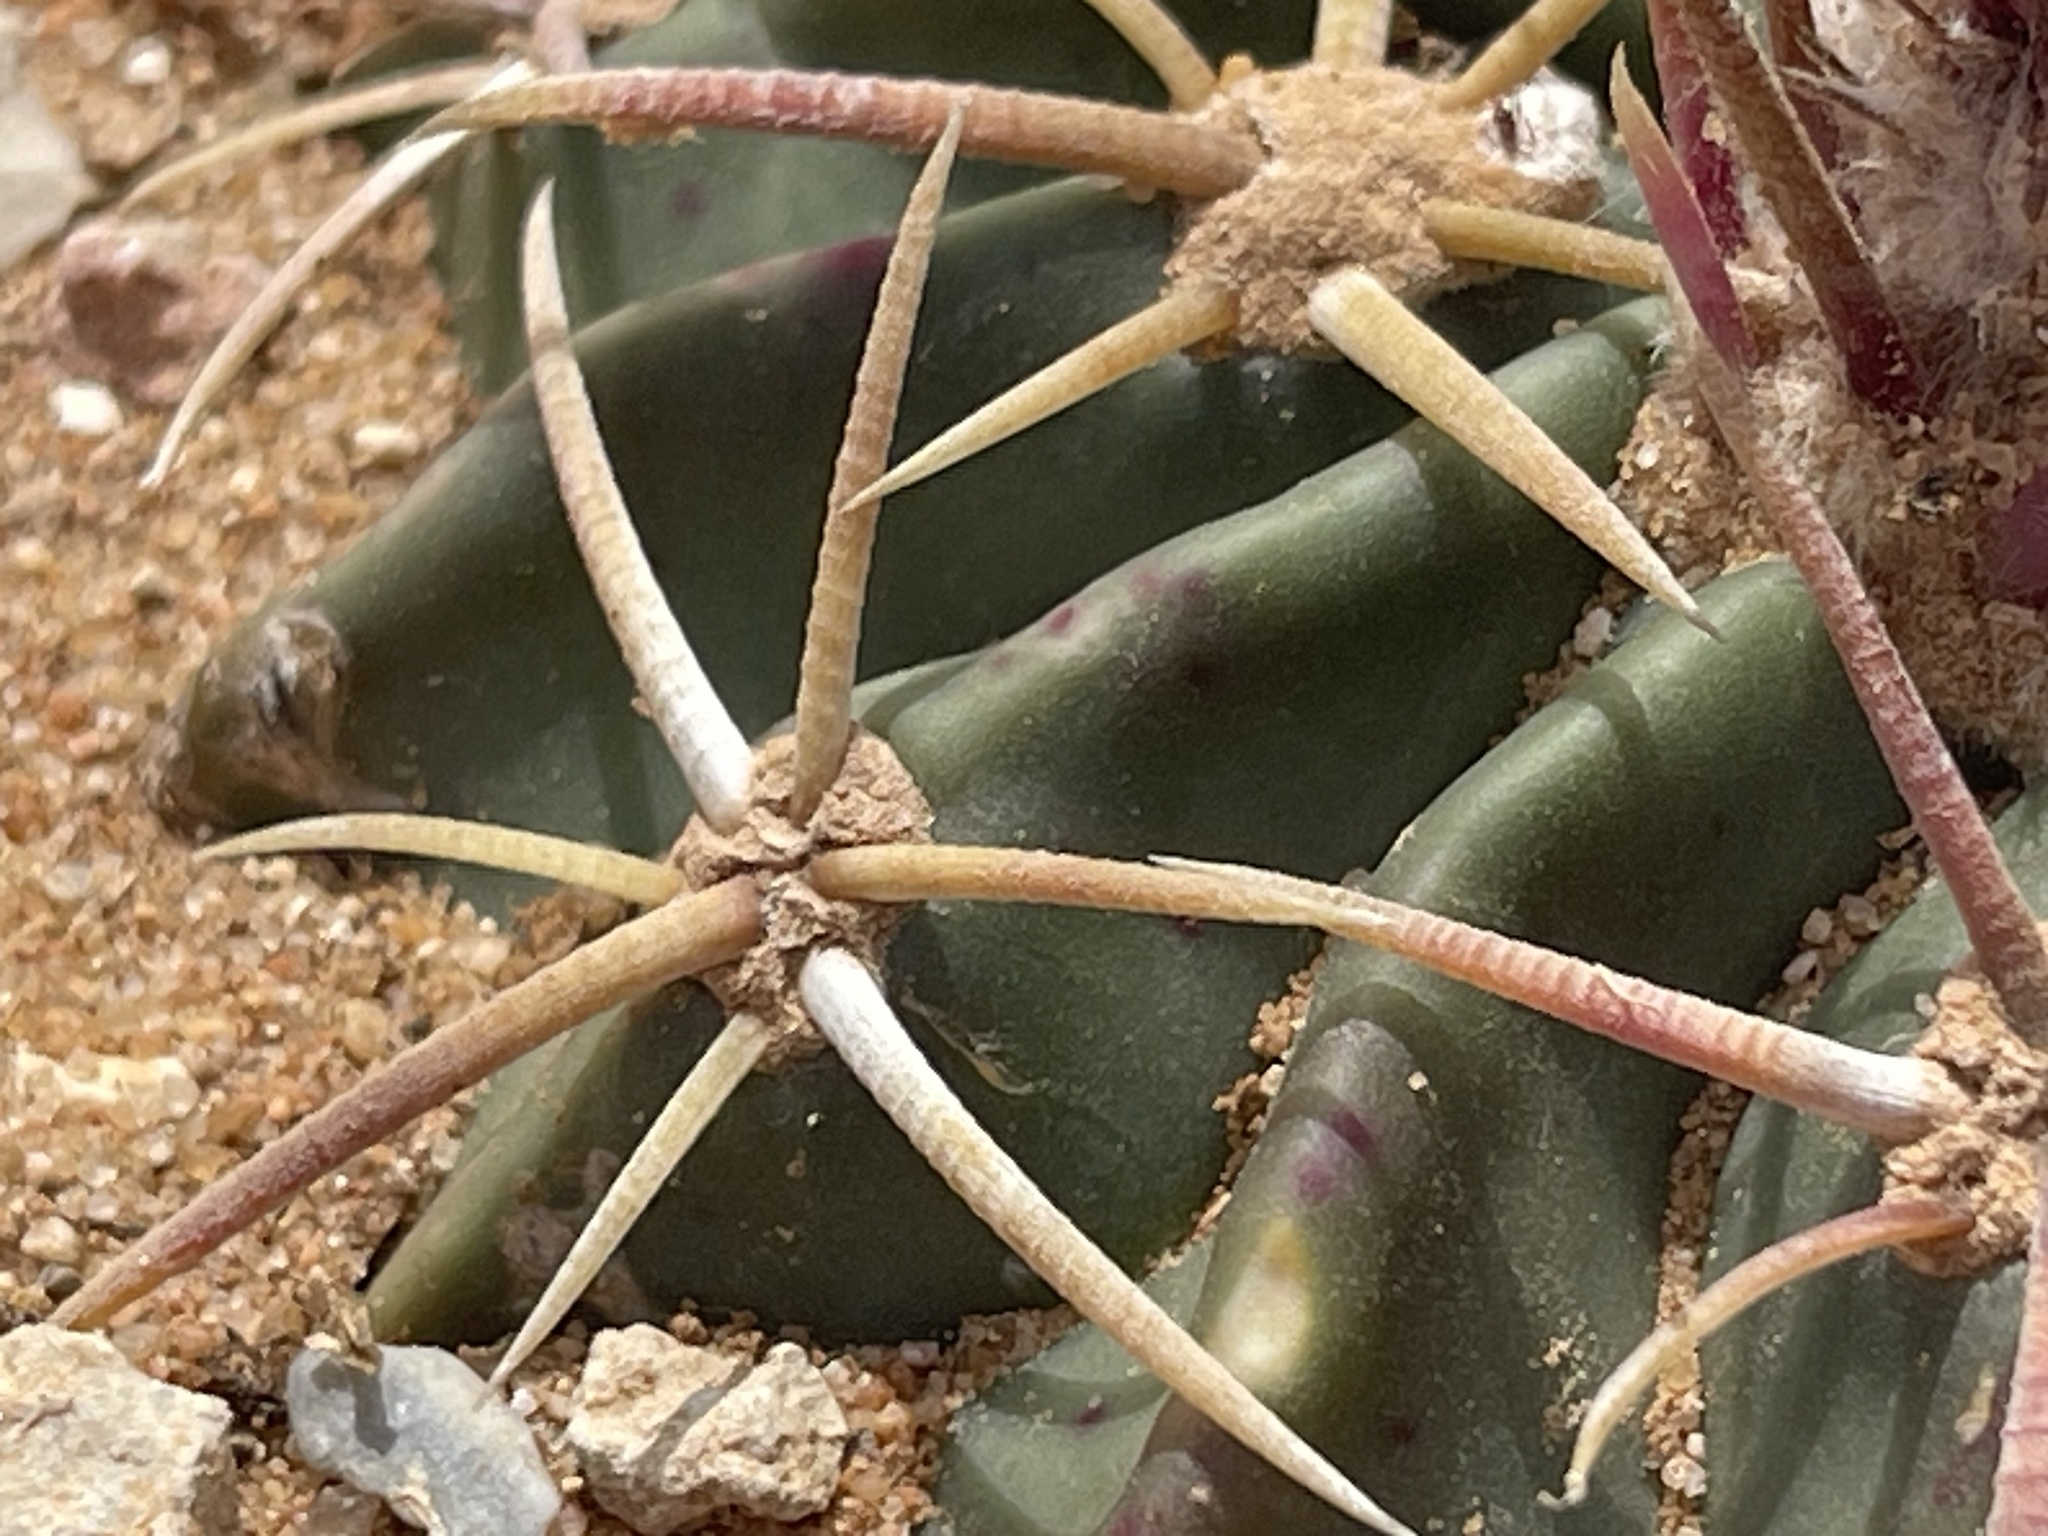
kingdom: Plantae
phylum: Tracheophyta
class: Magnoliopsida
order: Caryophyllales
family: Cactaceae
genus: Echinocactus
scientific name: Echinocactus texensis
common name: Devil's pincushion
